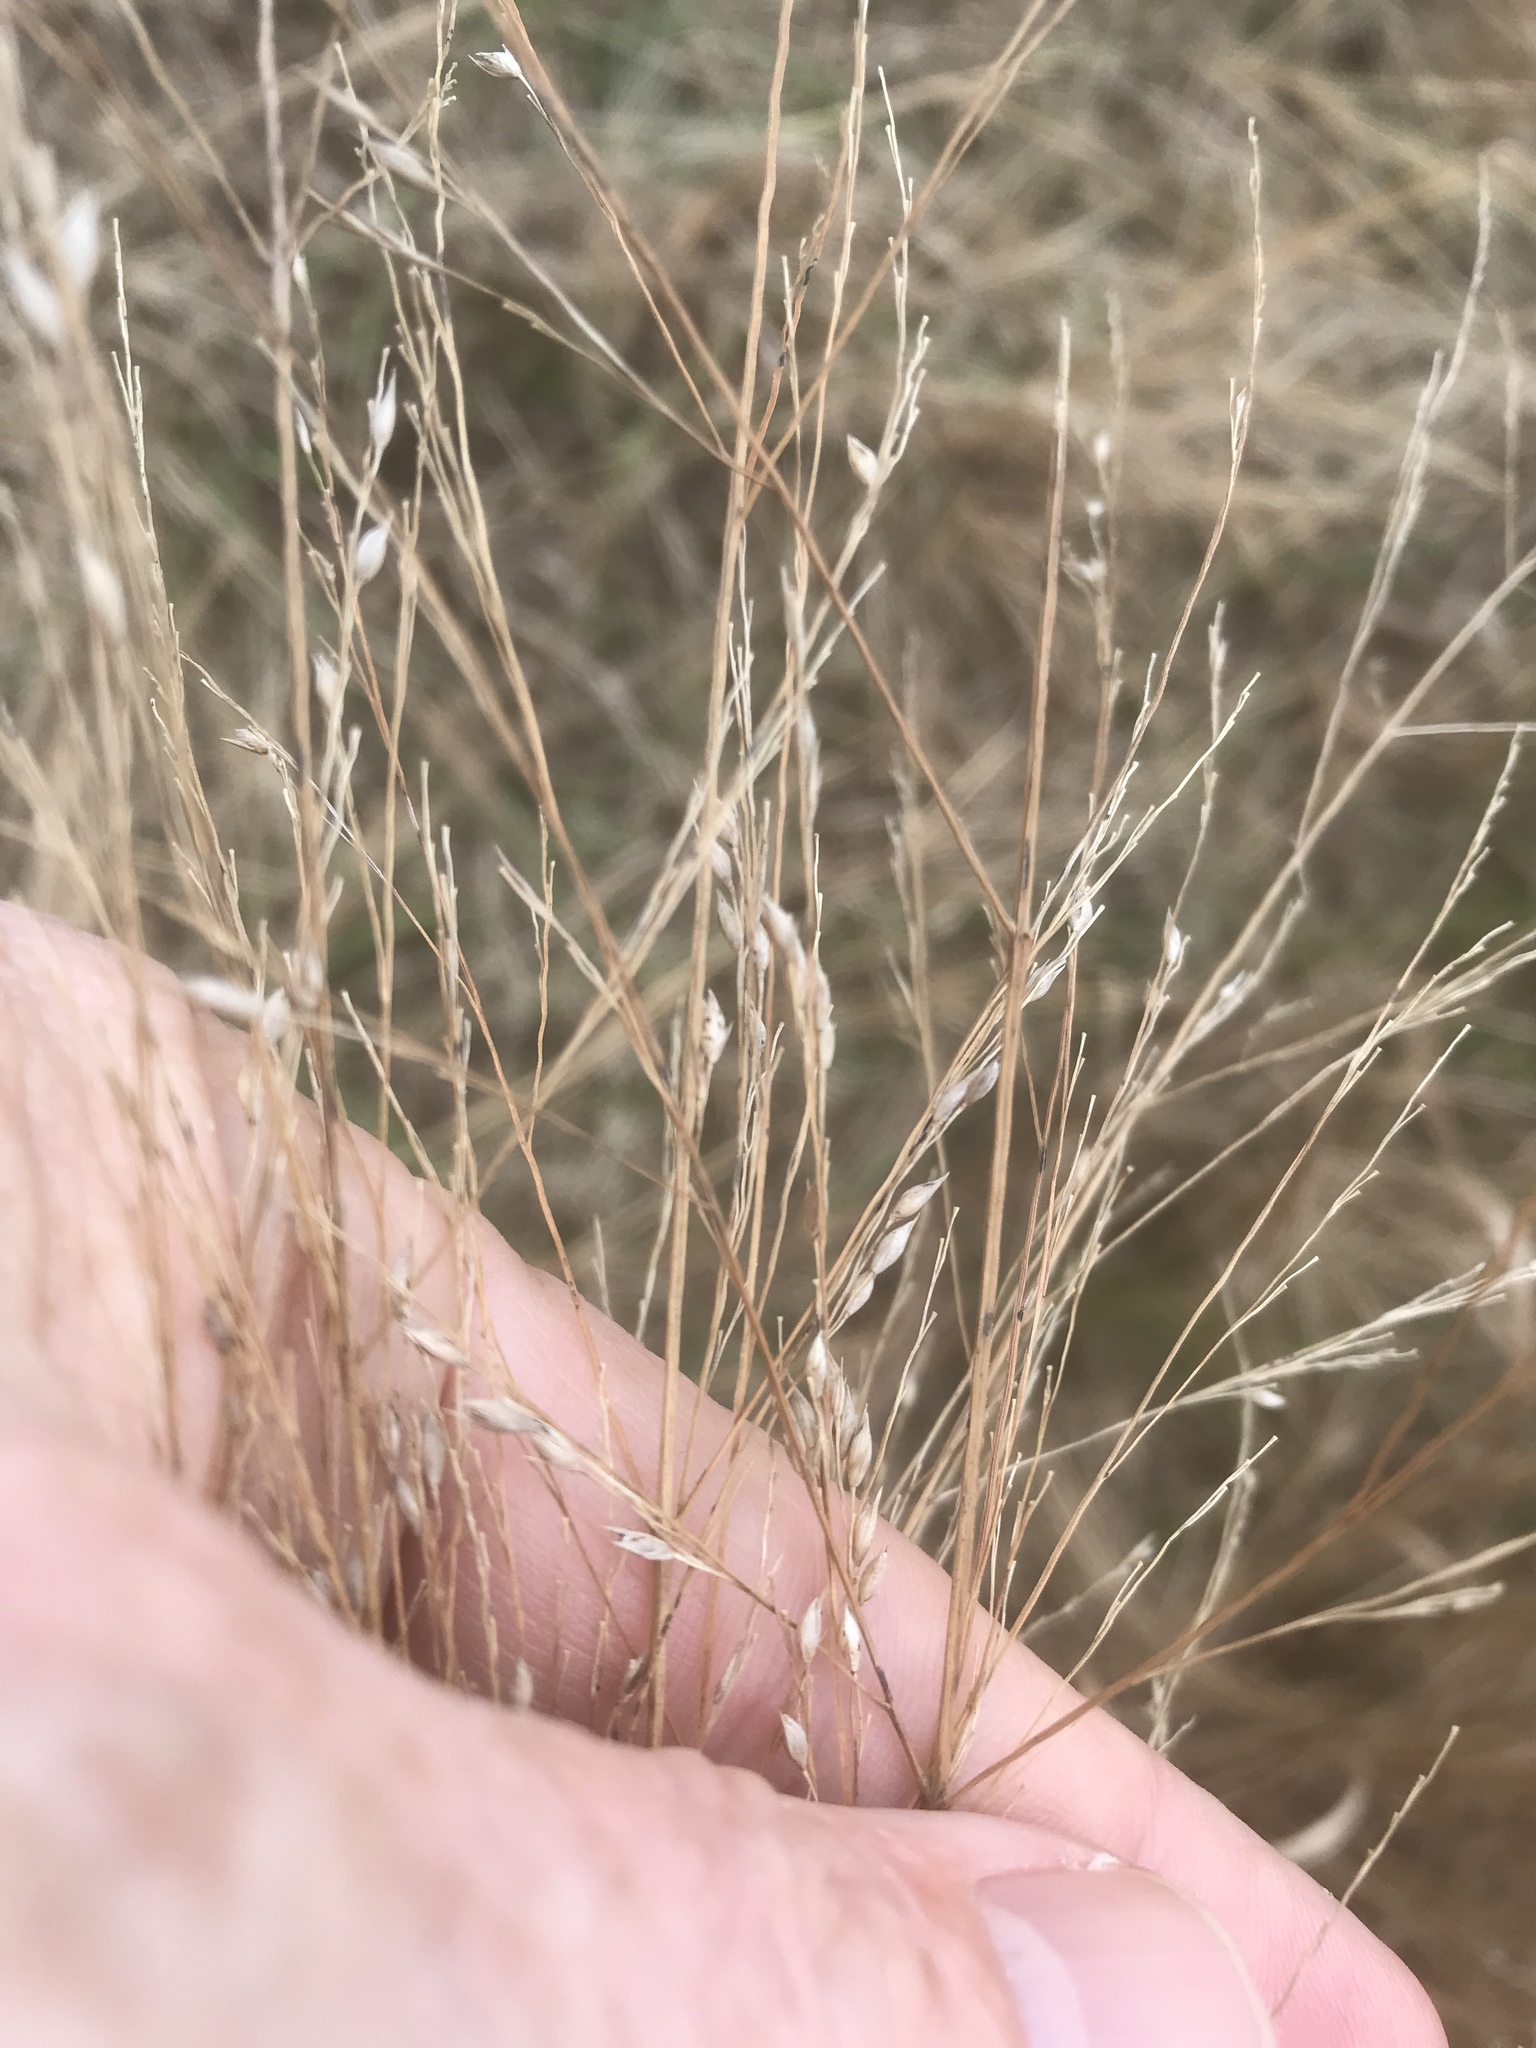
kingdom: Plantae
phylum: Tracheophyta
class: Liliopsida
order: Poales
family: Poaceae
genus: Panicum
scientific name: Panicum virgatum
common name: Switchgrass
